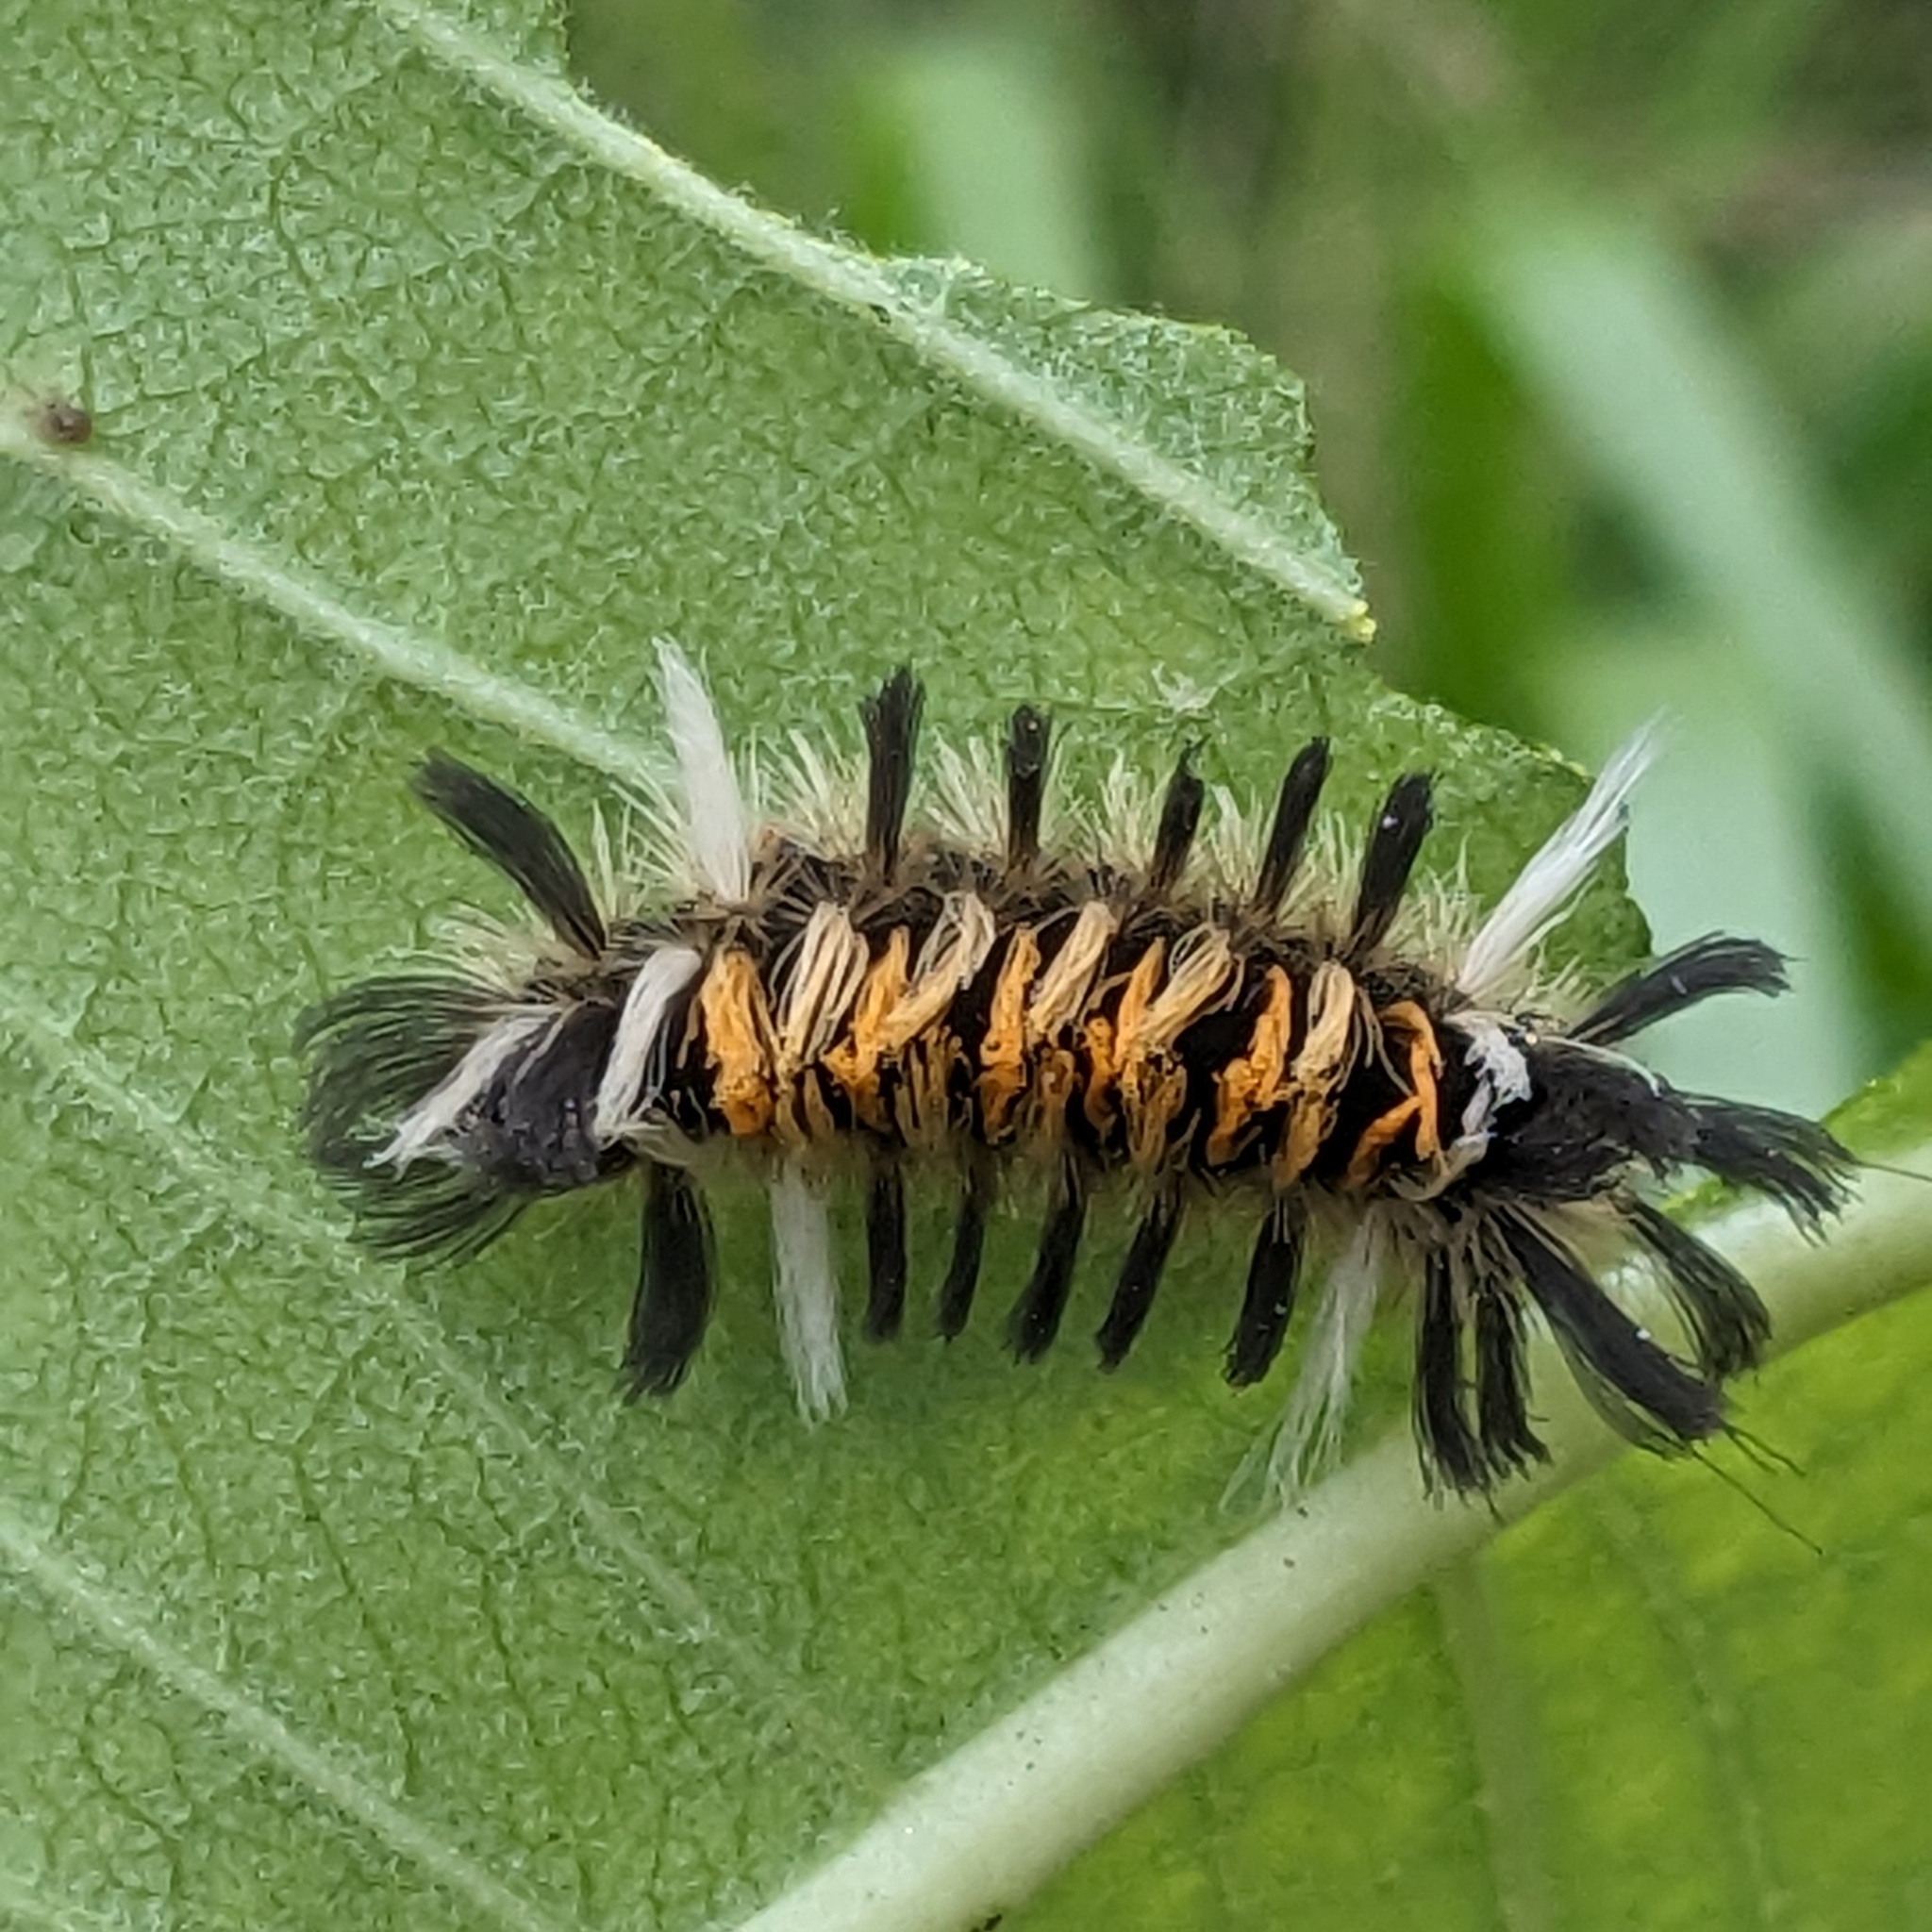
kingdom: Animalia
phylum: Arthropoda
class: Insecta
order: Lepidoptera
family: Erebidae
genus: Euchaetes
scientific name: Euchaetes egle
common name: Milkweed tussock moth
